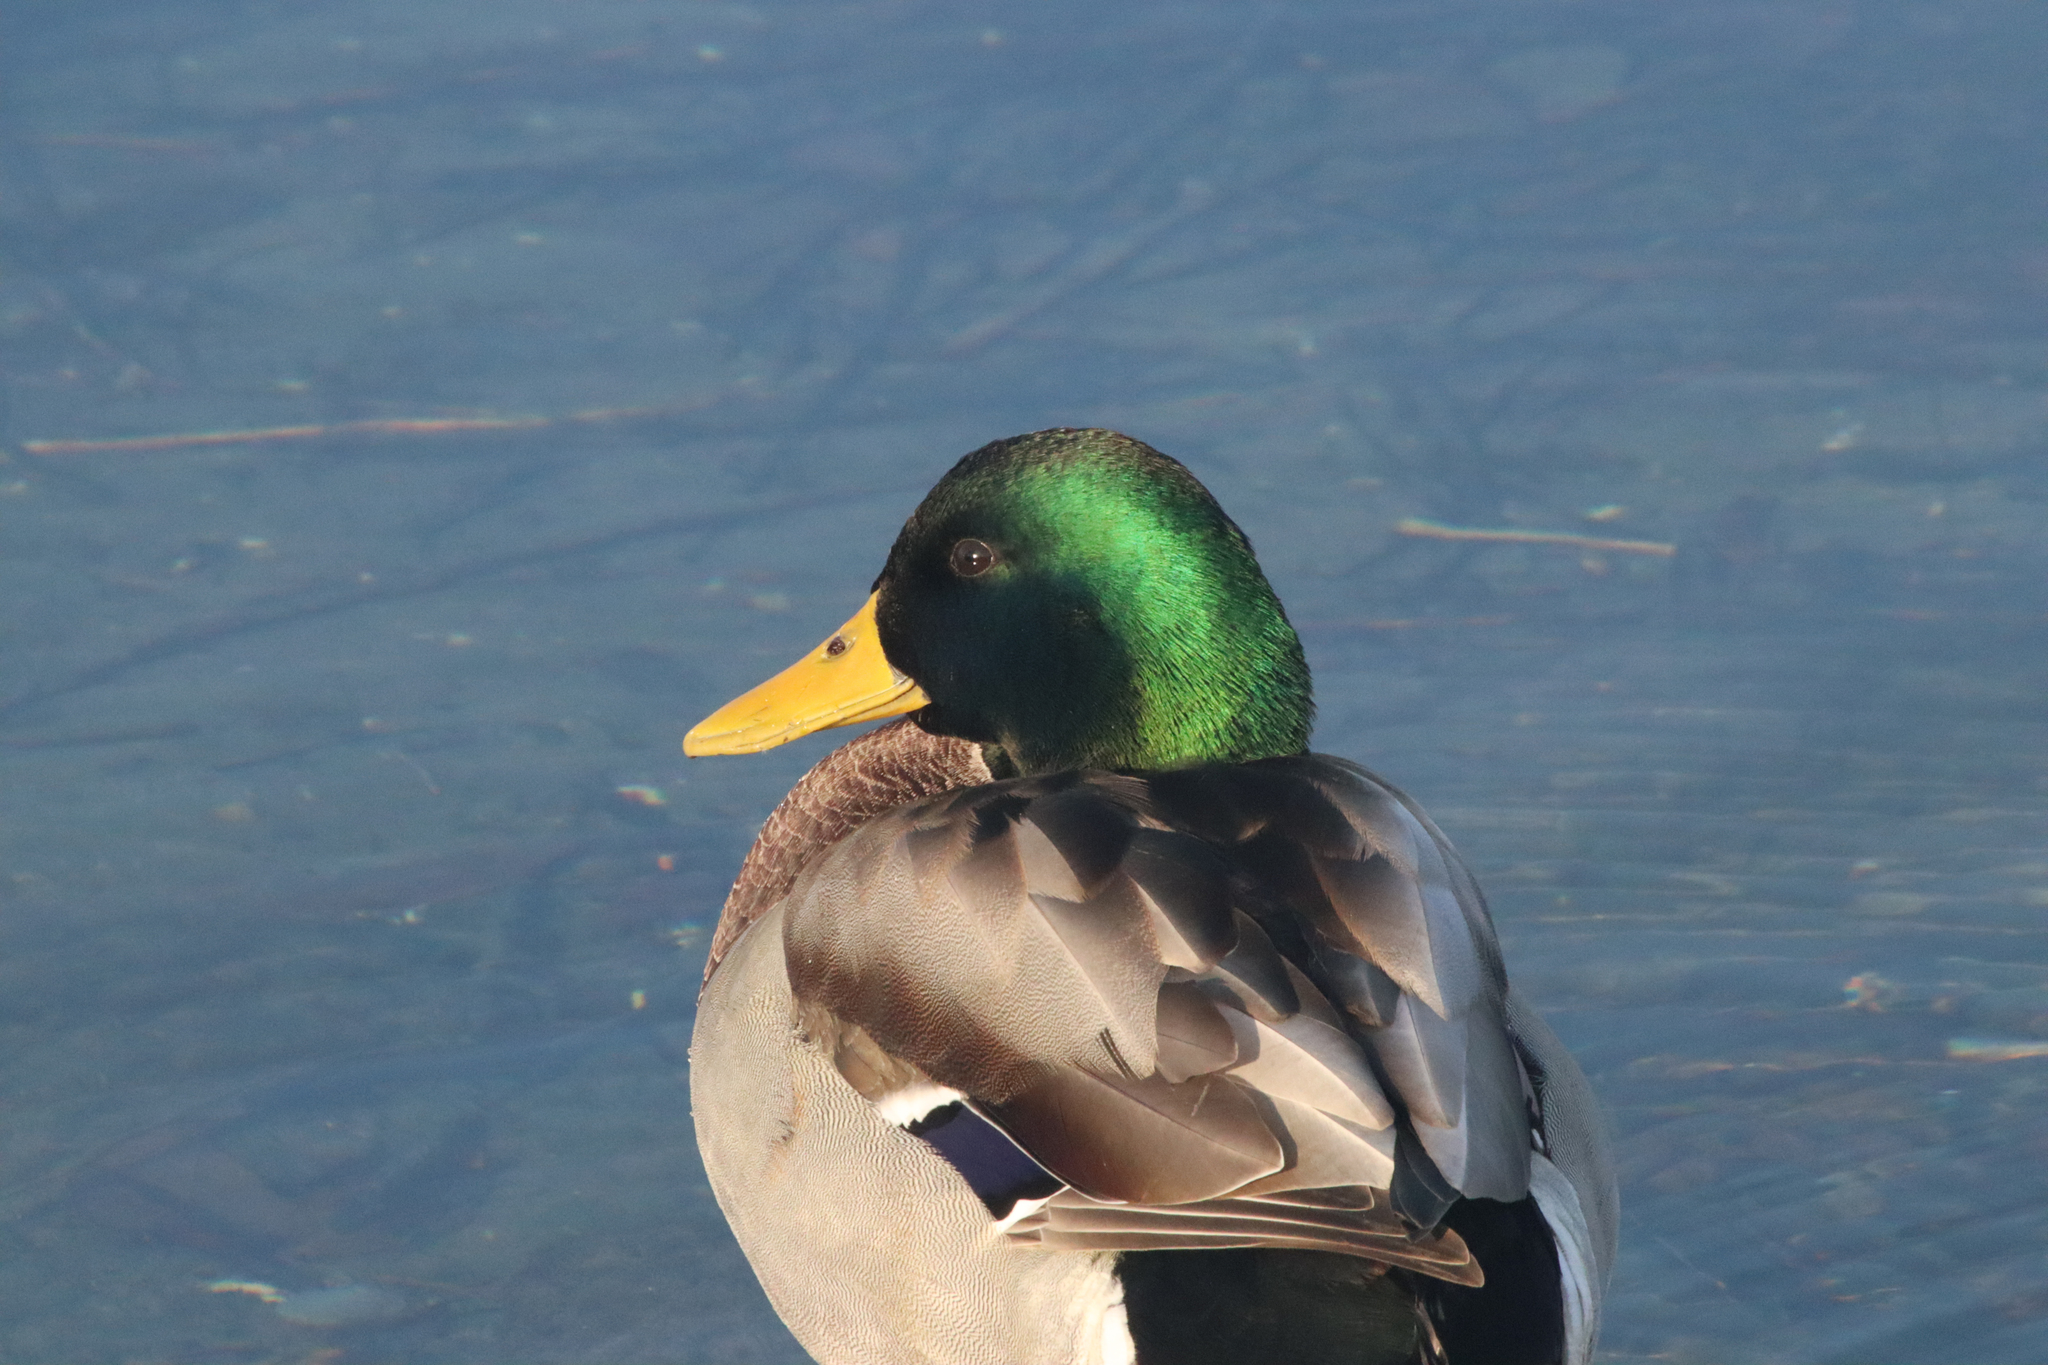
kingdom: Animalia
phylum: Chordata
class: Aves
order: Anseriformes
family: Anatidae
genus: Anas
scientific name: Anas platyrhynchos
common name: Mallard
